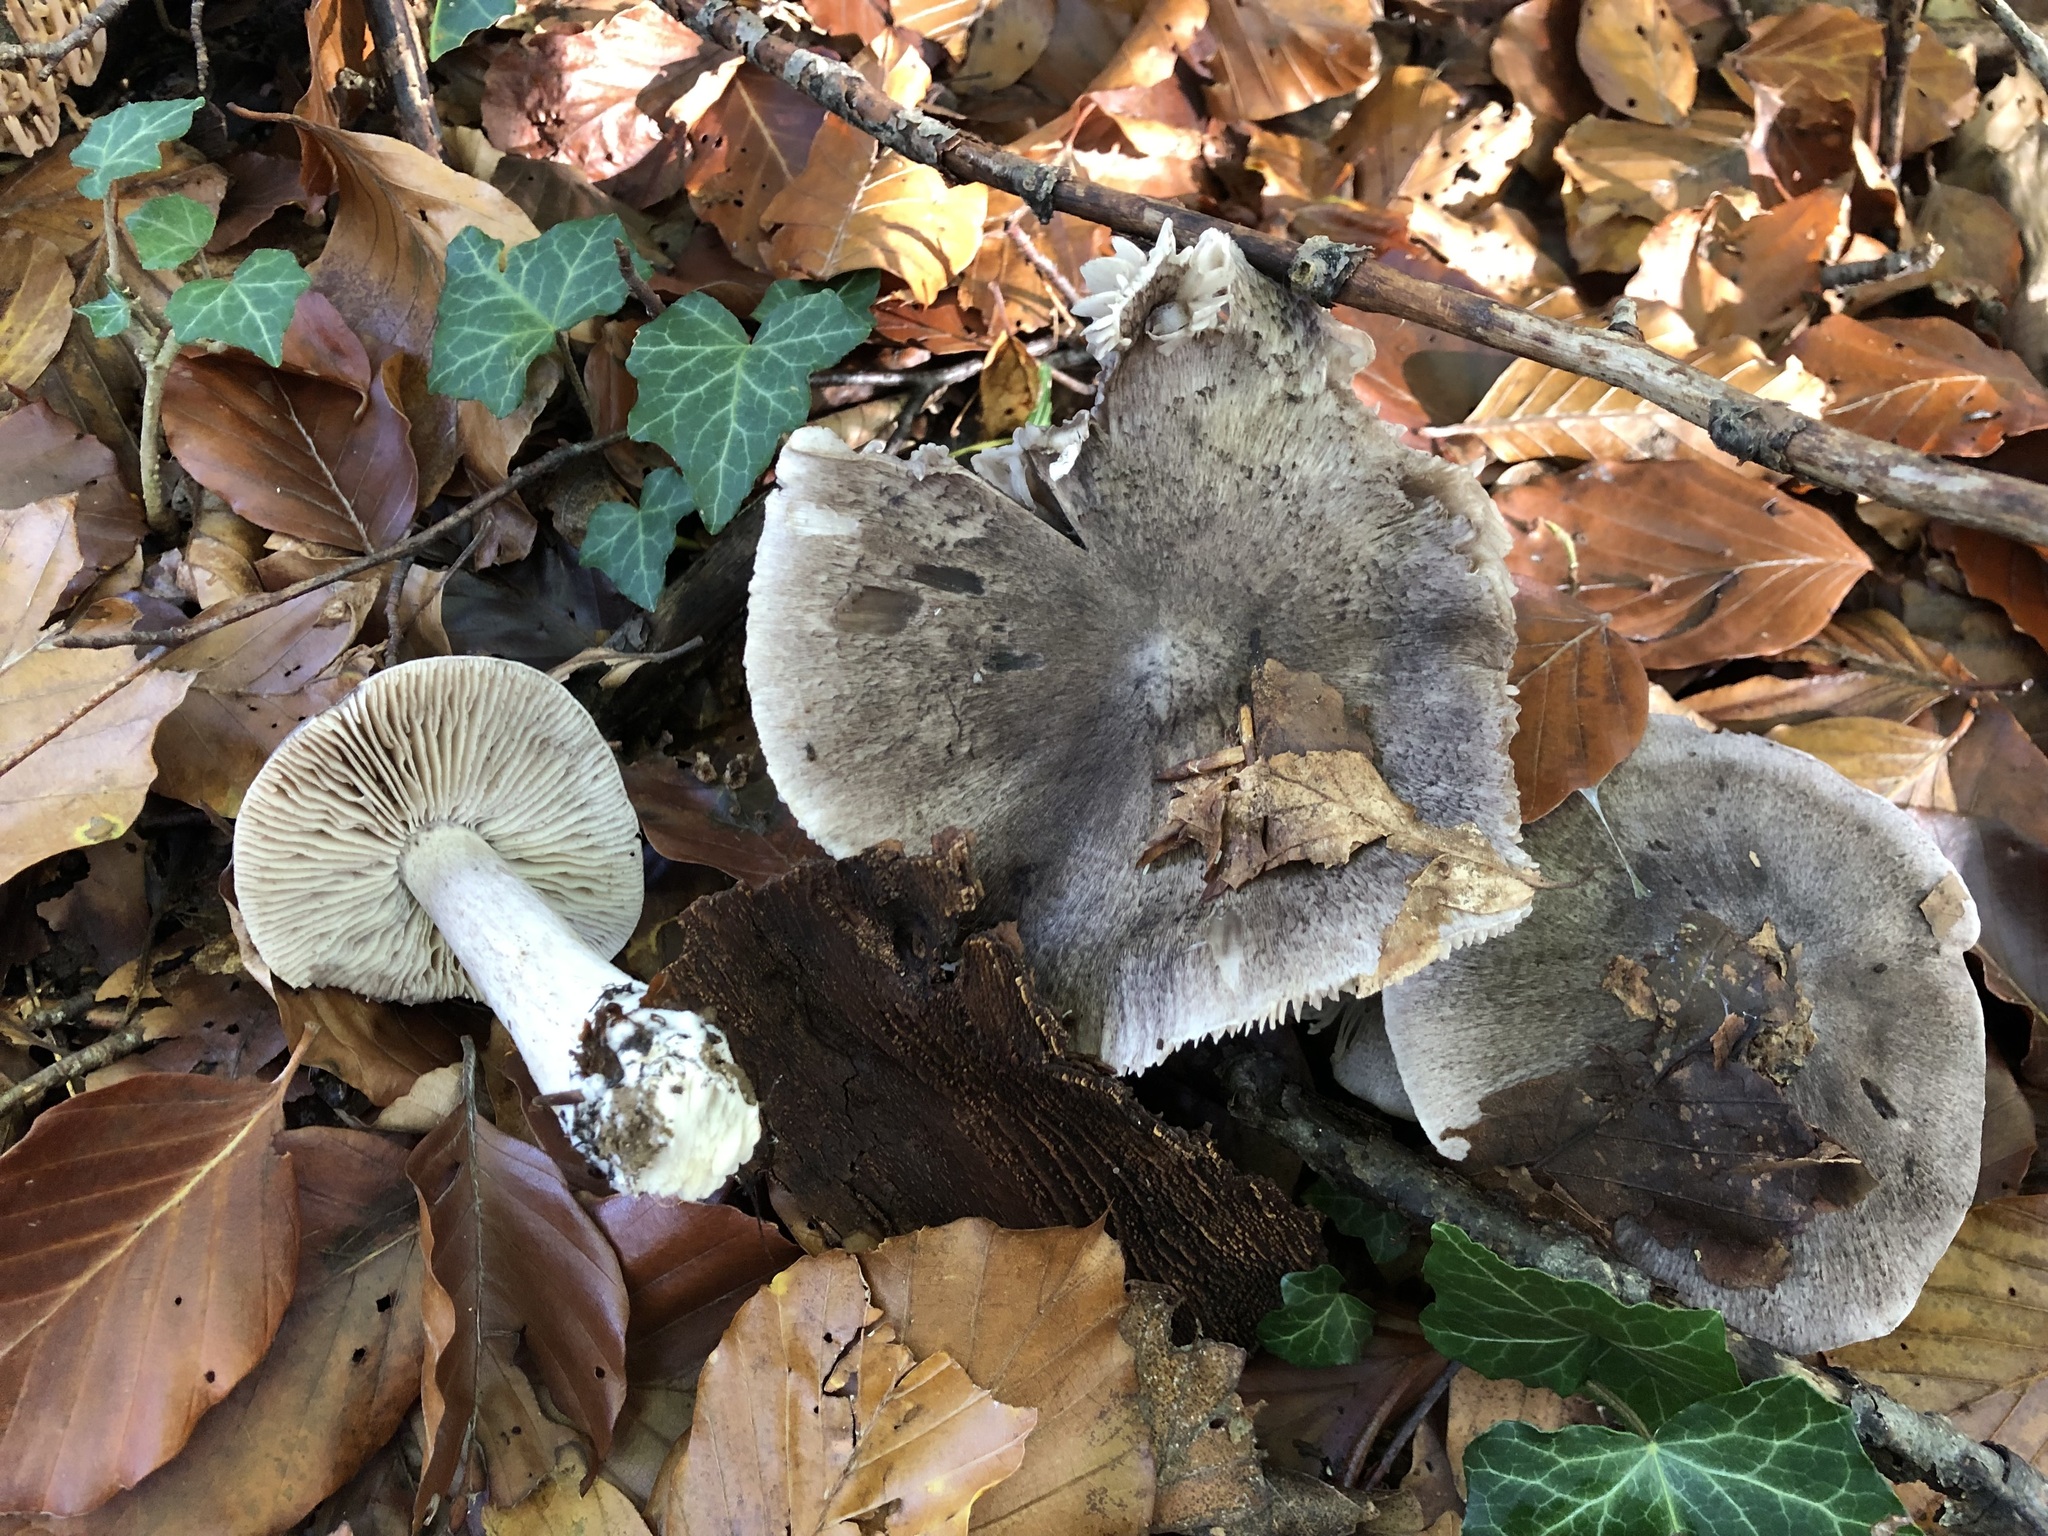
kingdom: Fungi
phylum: Basidiomycota
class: Agaricomycetes
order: Agaricales
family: Tricholomataceae
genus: Tricholoma
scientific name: Tricholoma sciodes
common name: Beech knight
